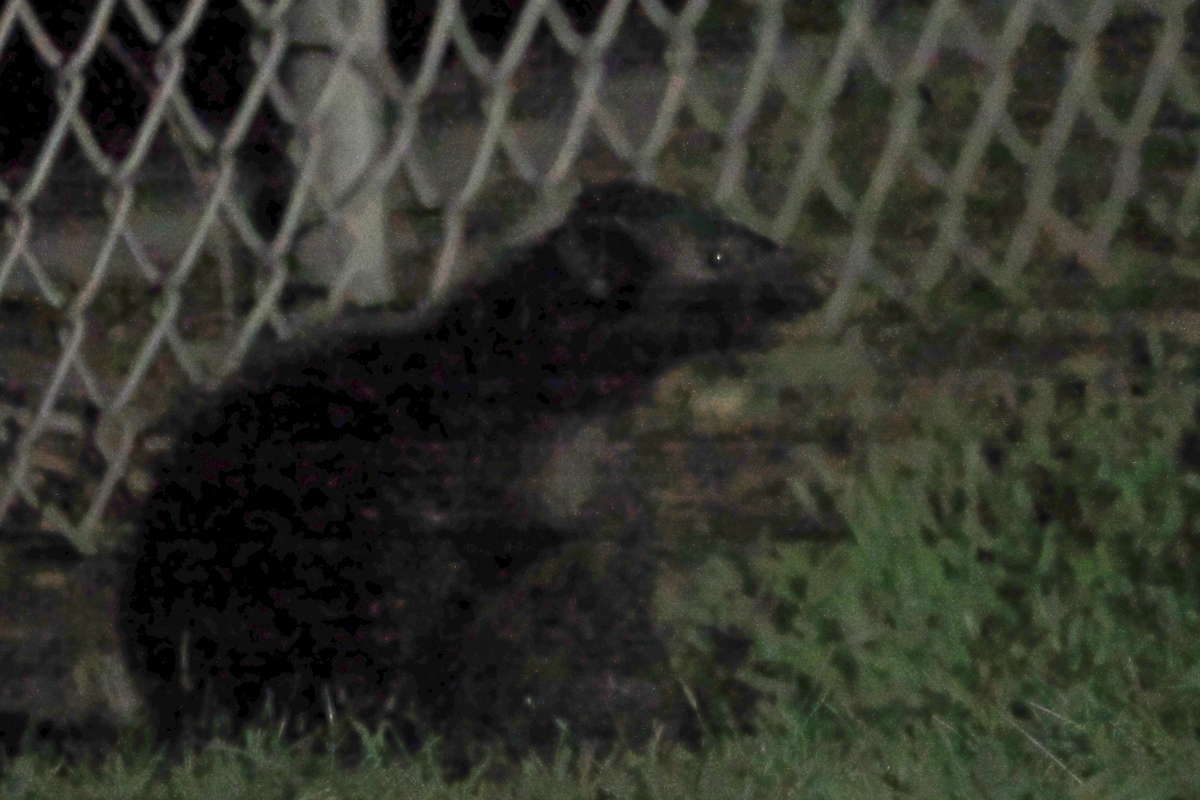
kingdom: Animalia
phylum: Chordata
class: Mammalia
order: Carnivora
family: Mephitidae
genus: Mephitis
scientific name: Mephitis mephitis
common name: Striped skunk
